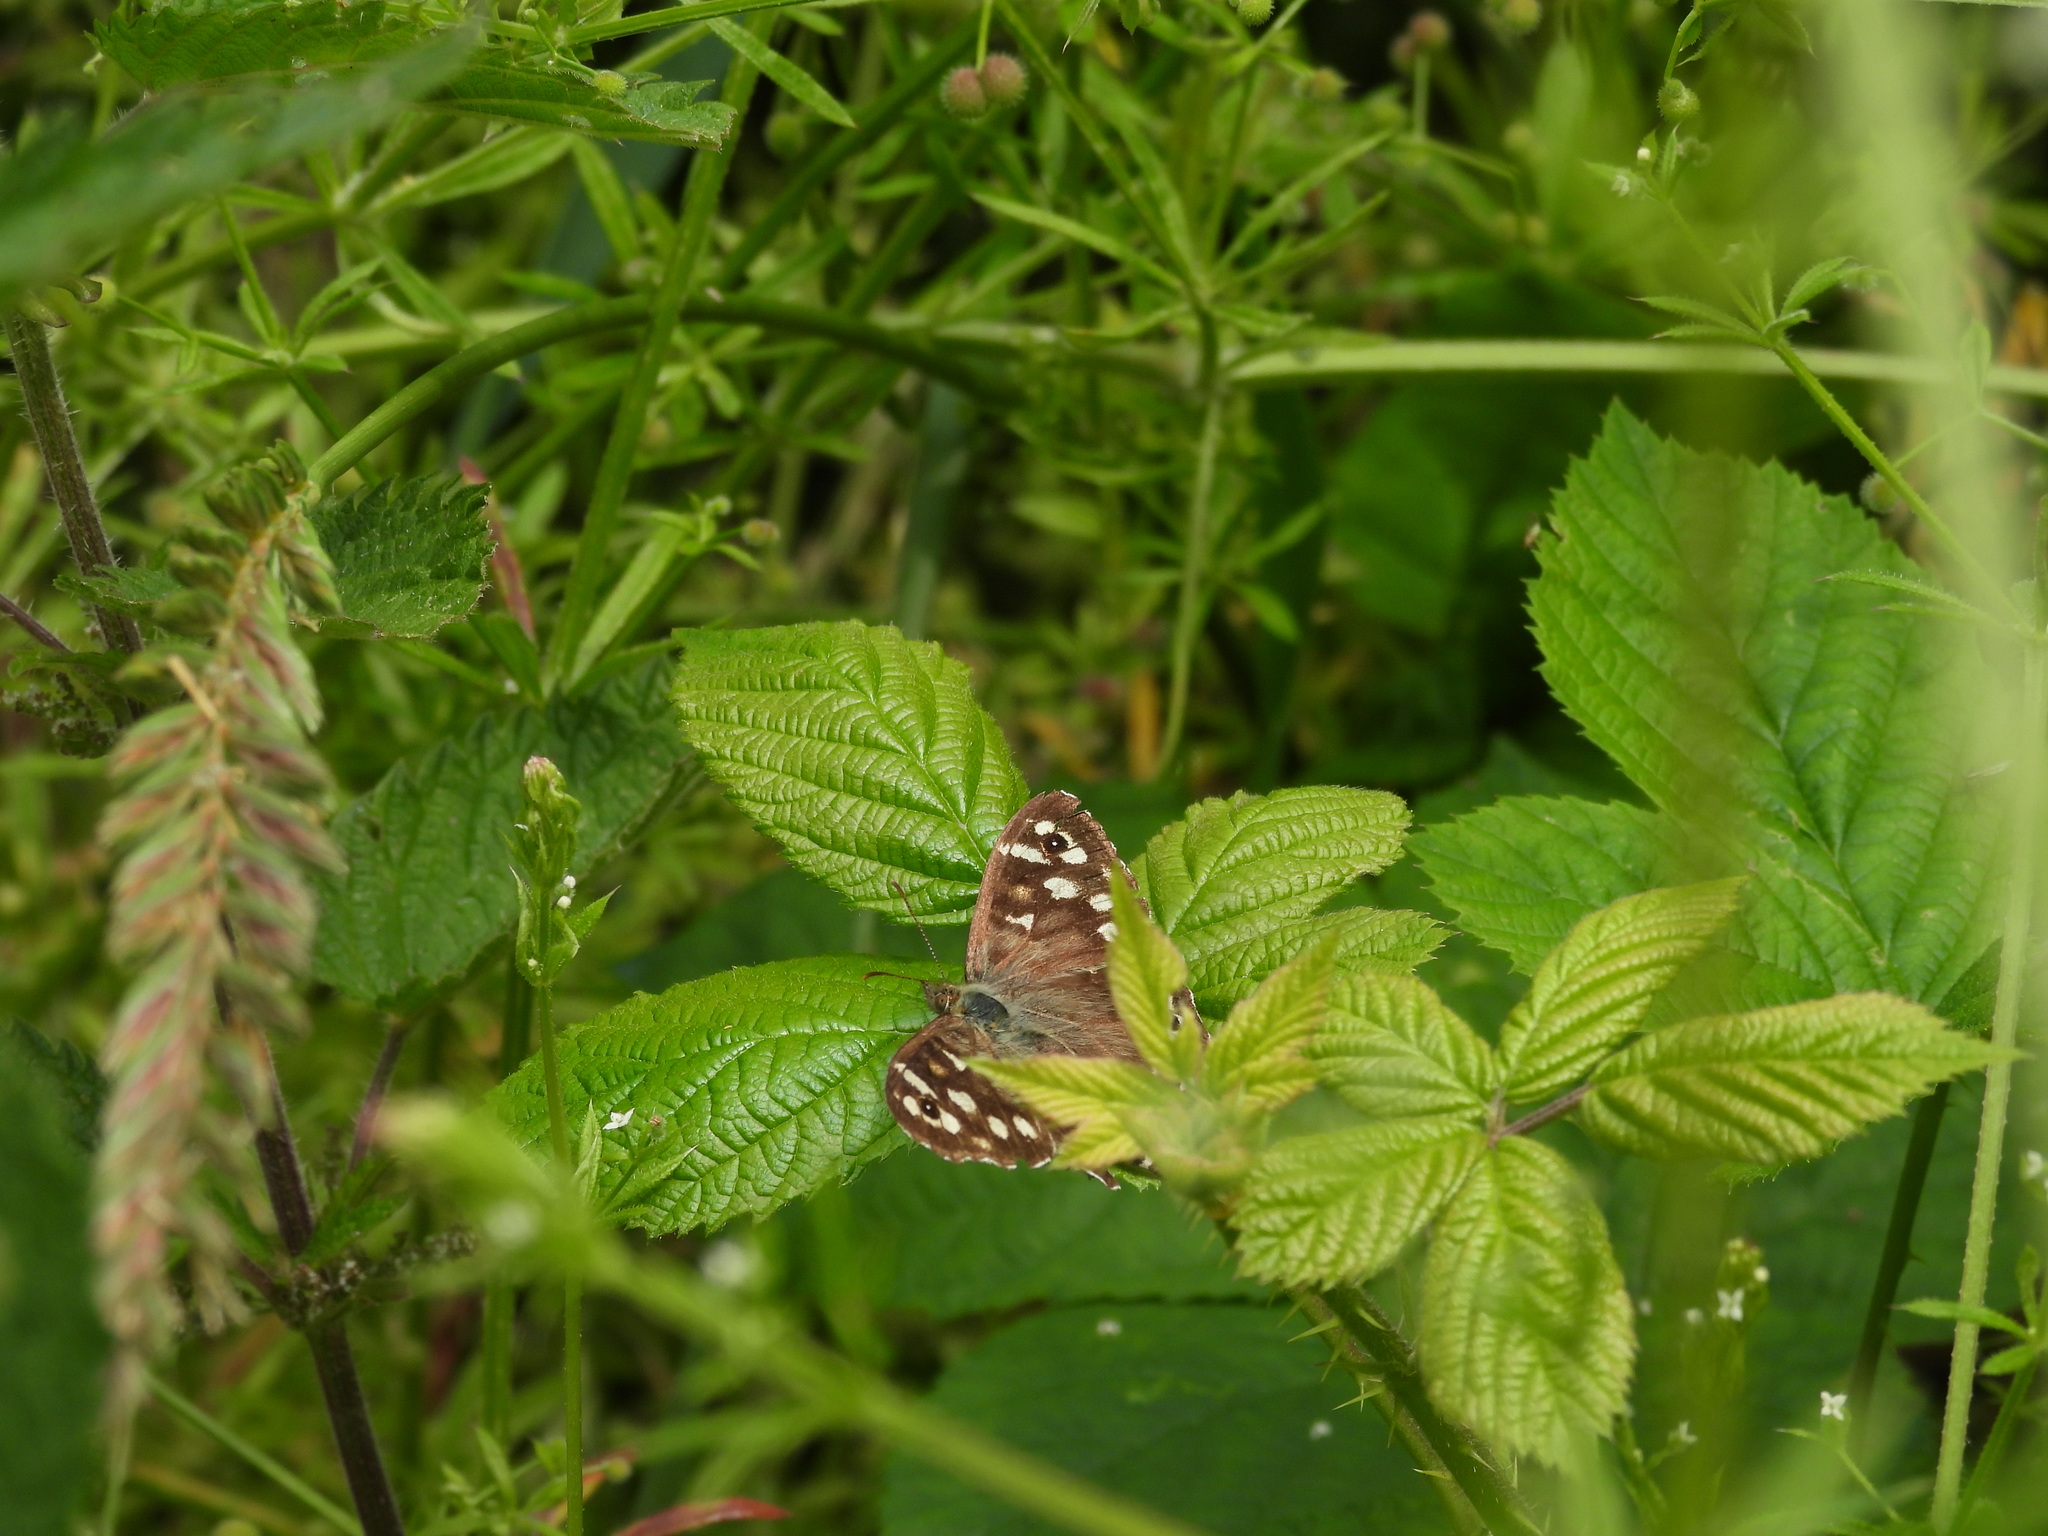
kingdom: Animalia
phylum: Arthropoda
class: Insecta
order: Lepidoptera
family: Nymphalidae
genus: Pararge
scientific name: Pararge aegeria
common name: Speckled wood
